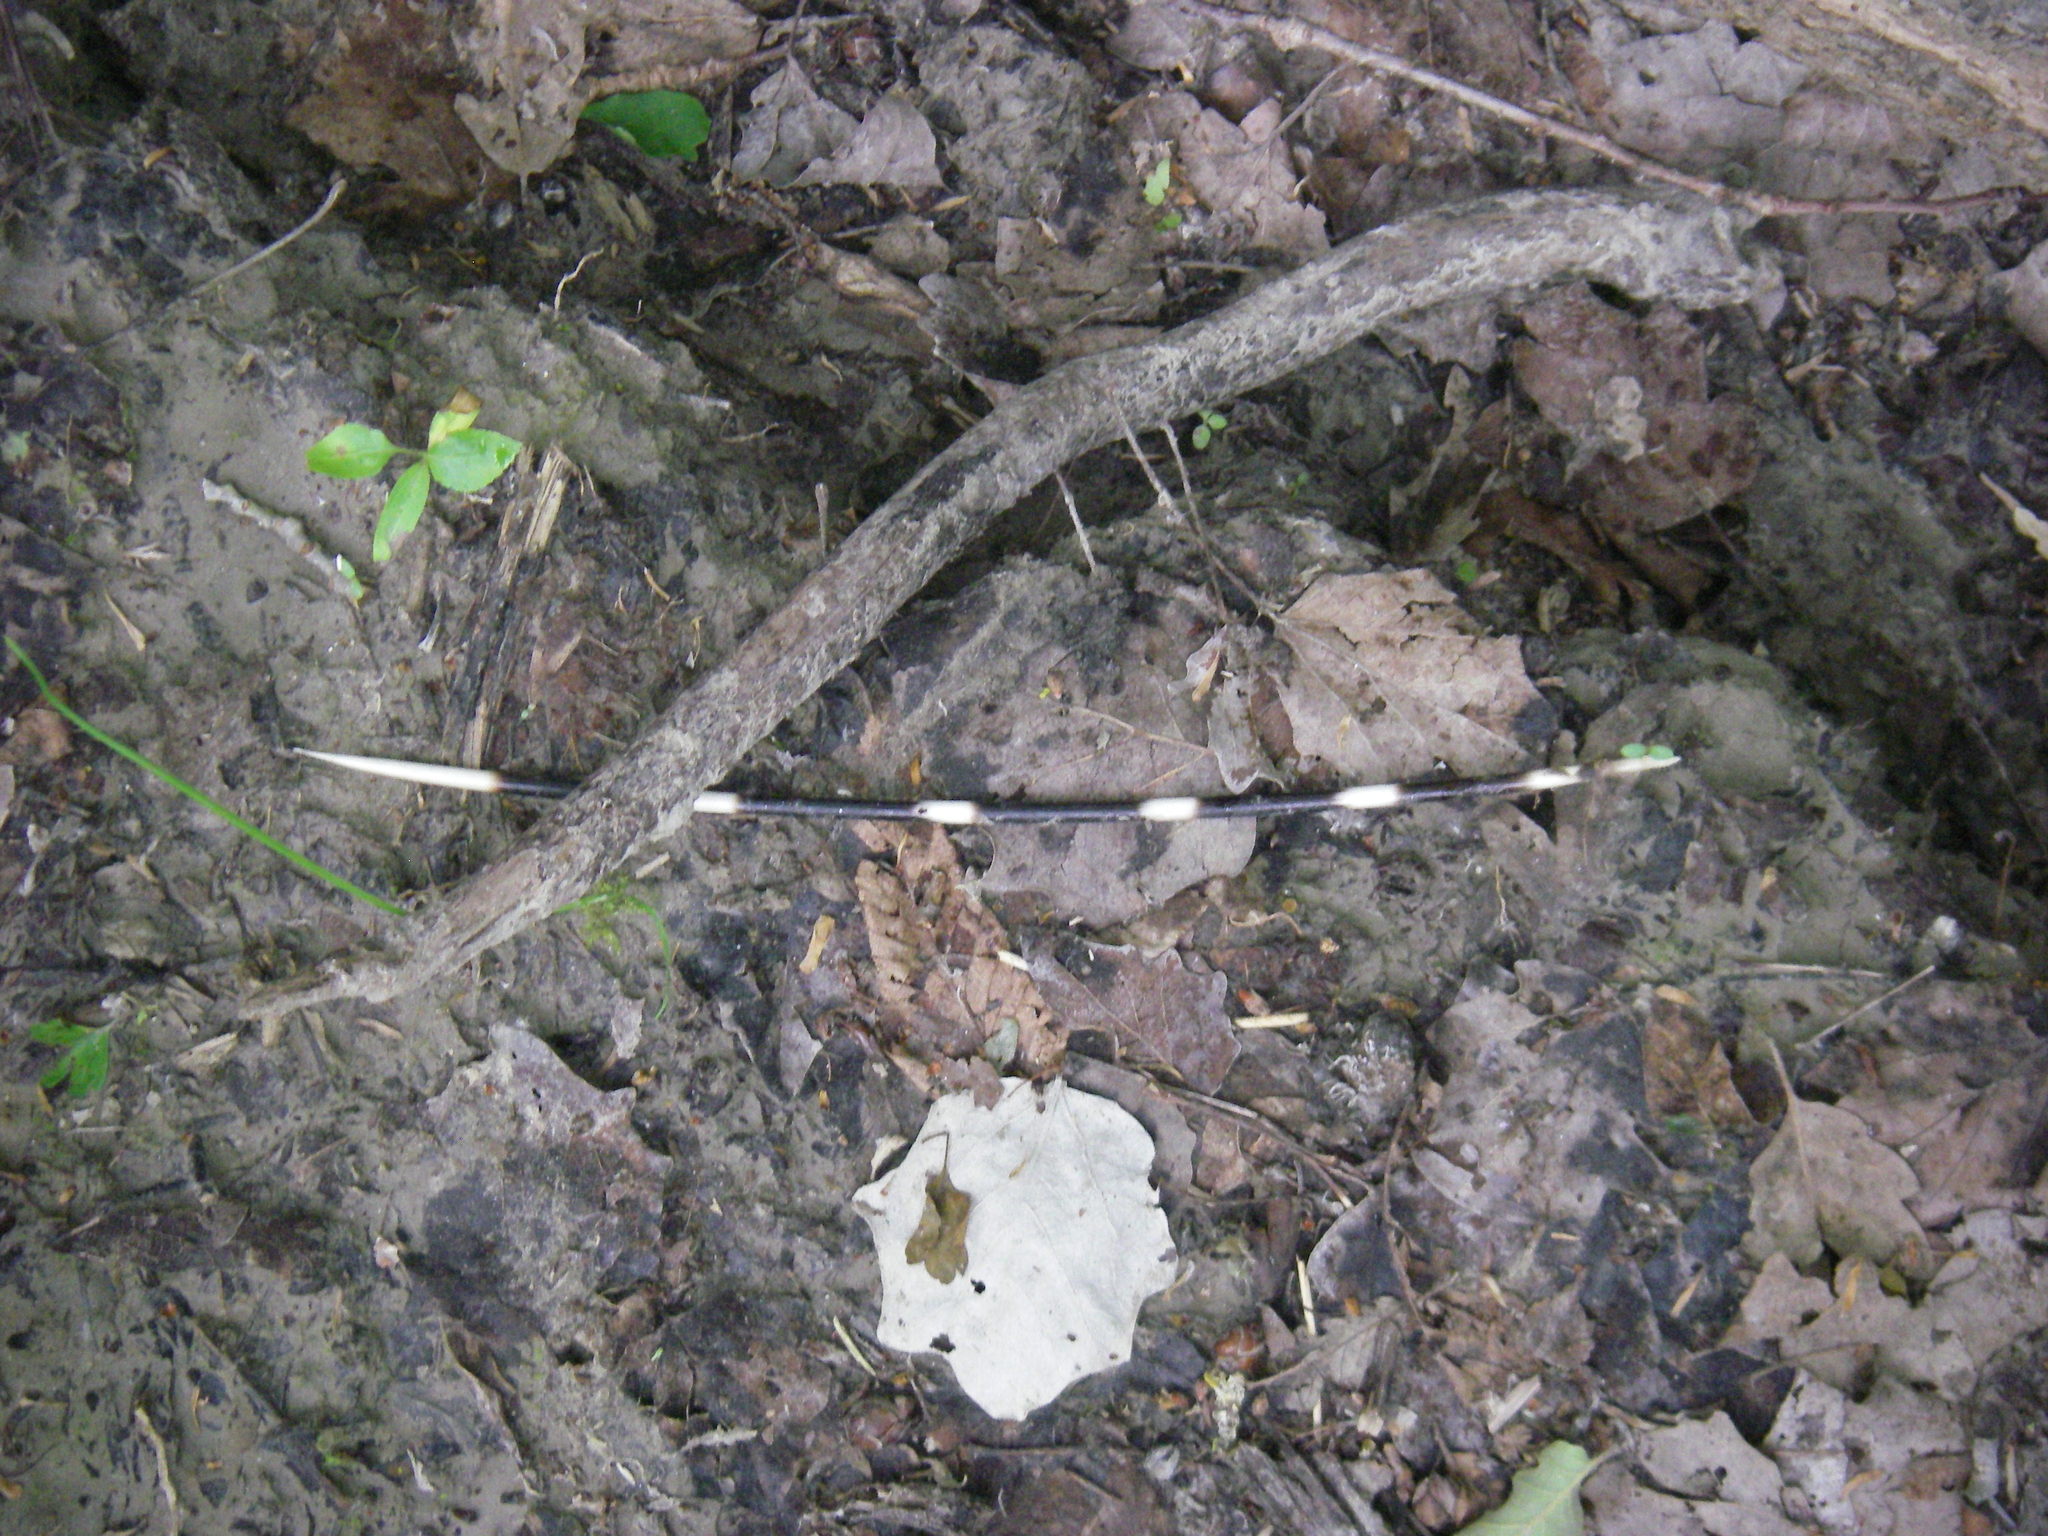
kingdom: Animalia
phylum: Chordata
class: Mammalia
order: Rodentia
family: Hystricidae
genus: Hystrix
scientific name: Hystrix cristata
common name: Crested porcupine
